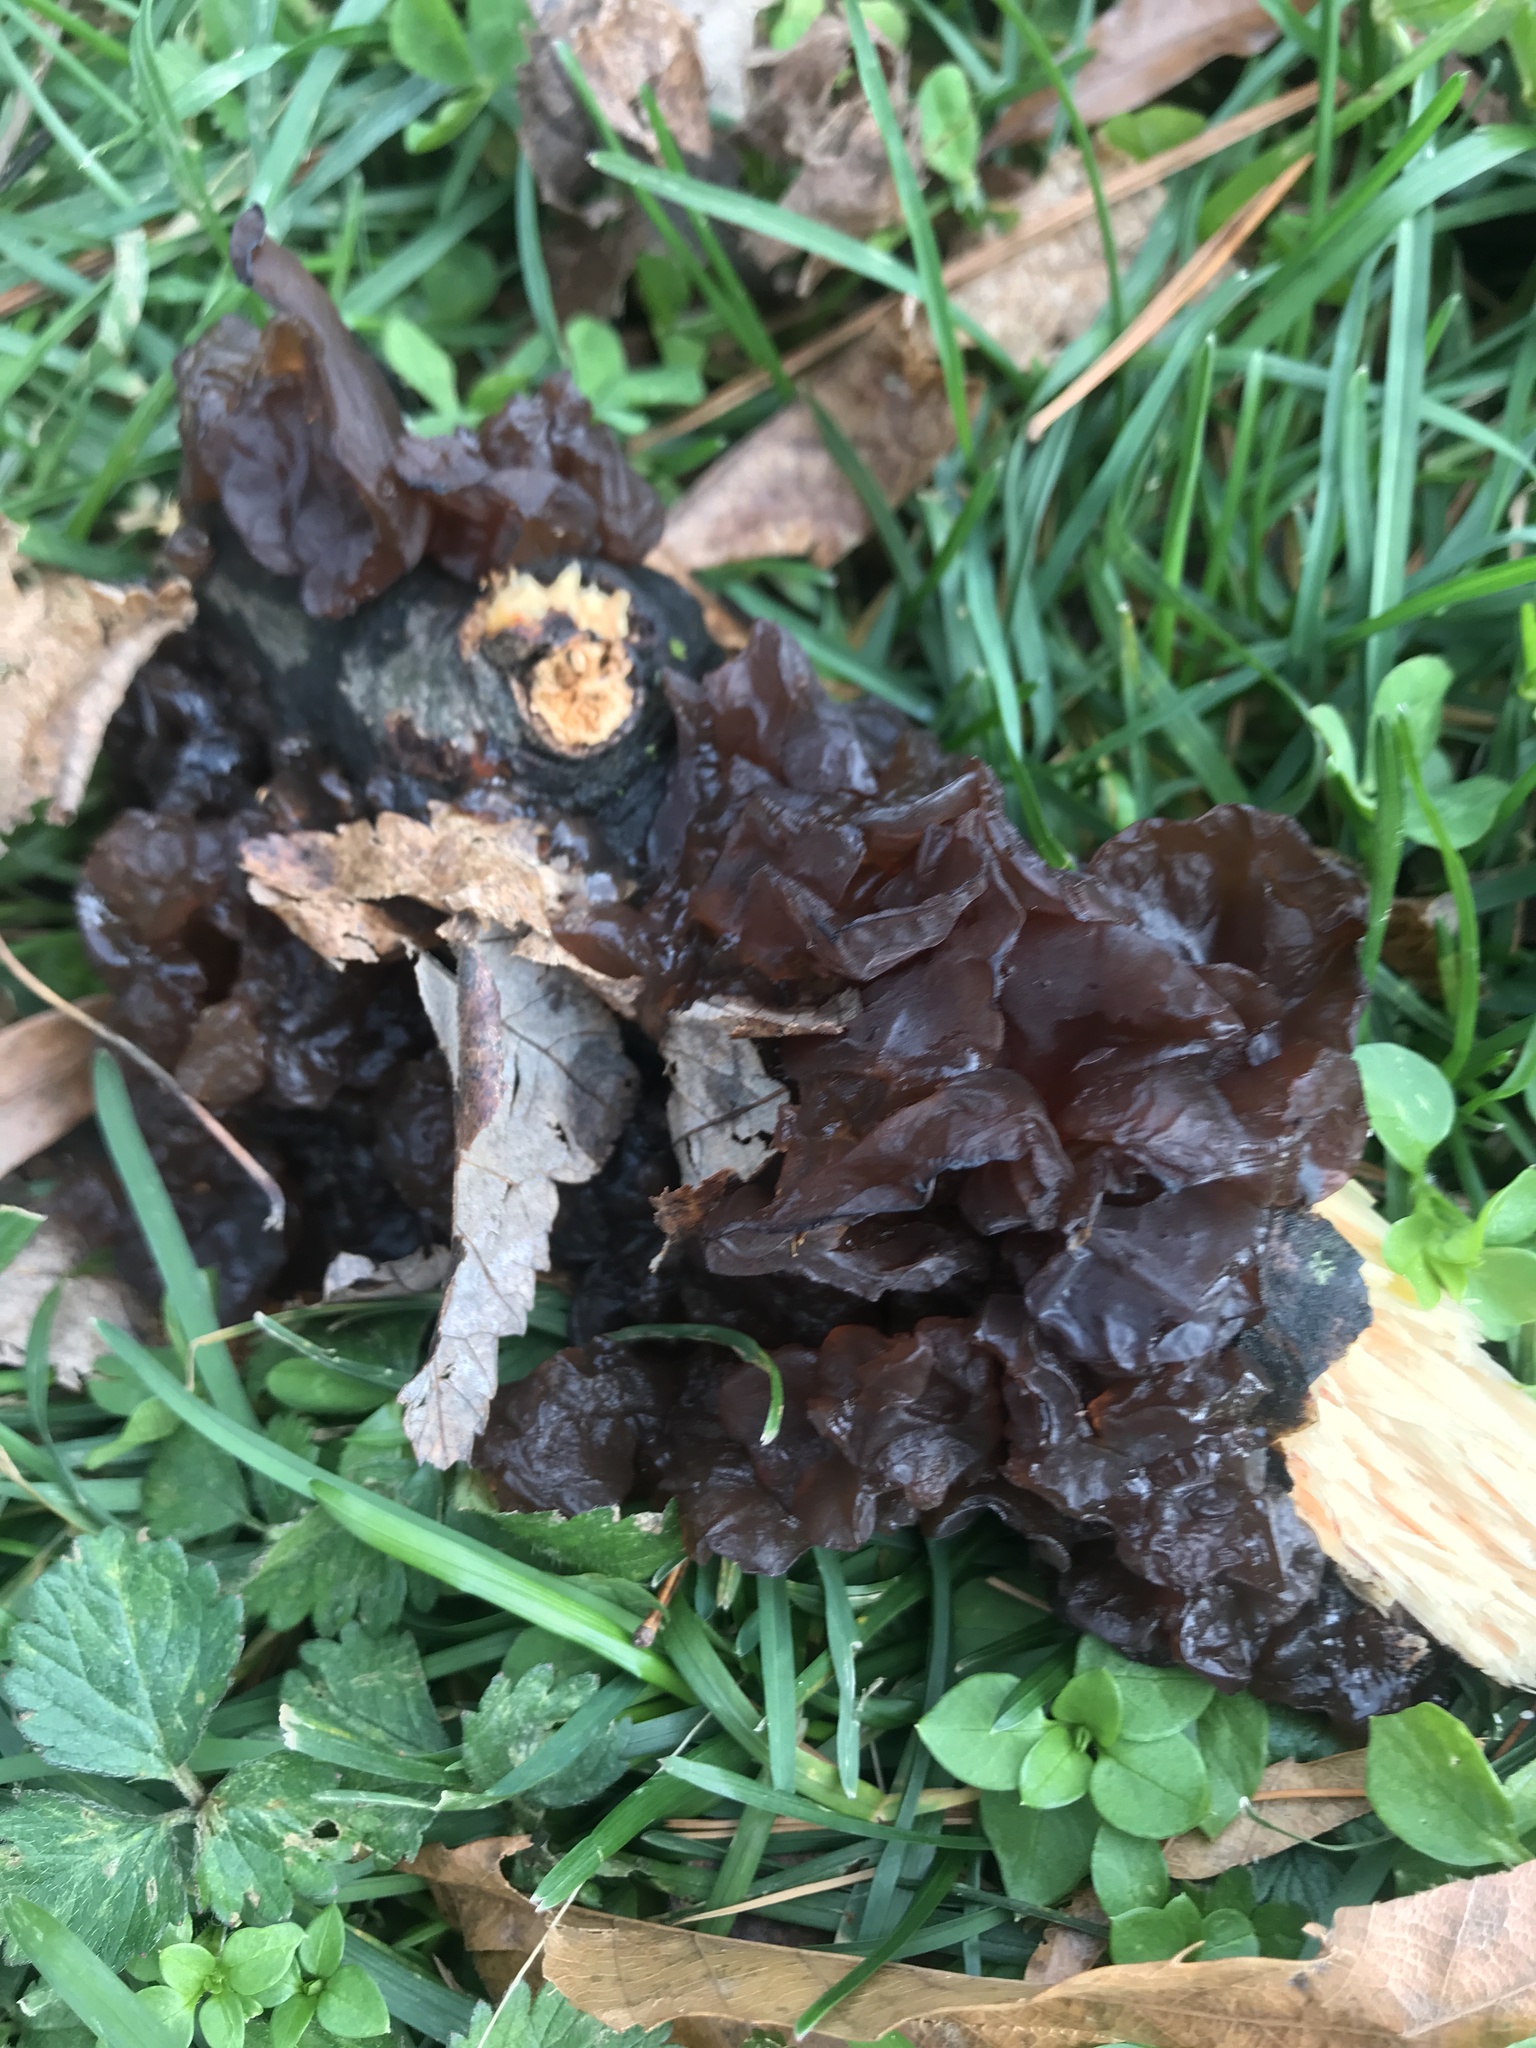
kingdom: Fungi
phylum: Basidiomycota
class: Agaricomycetes
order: Auriculariales
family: Auriculariaceae
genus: Exidia
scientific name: Exidia
